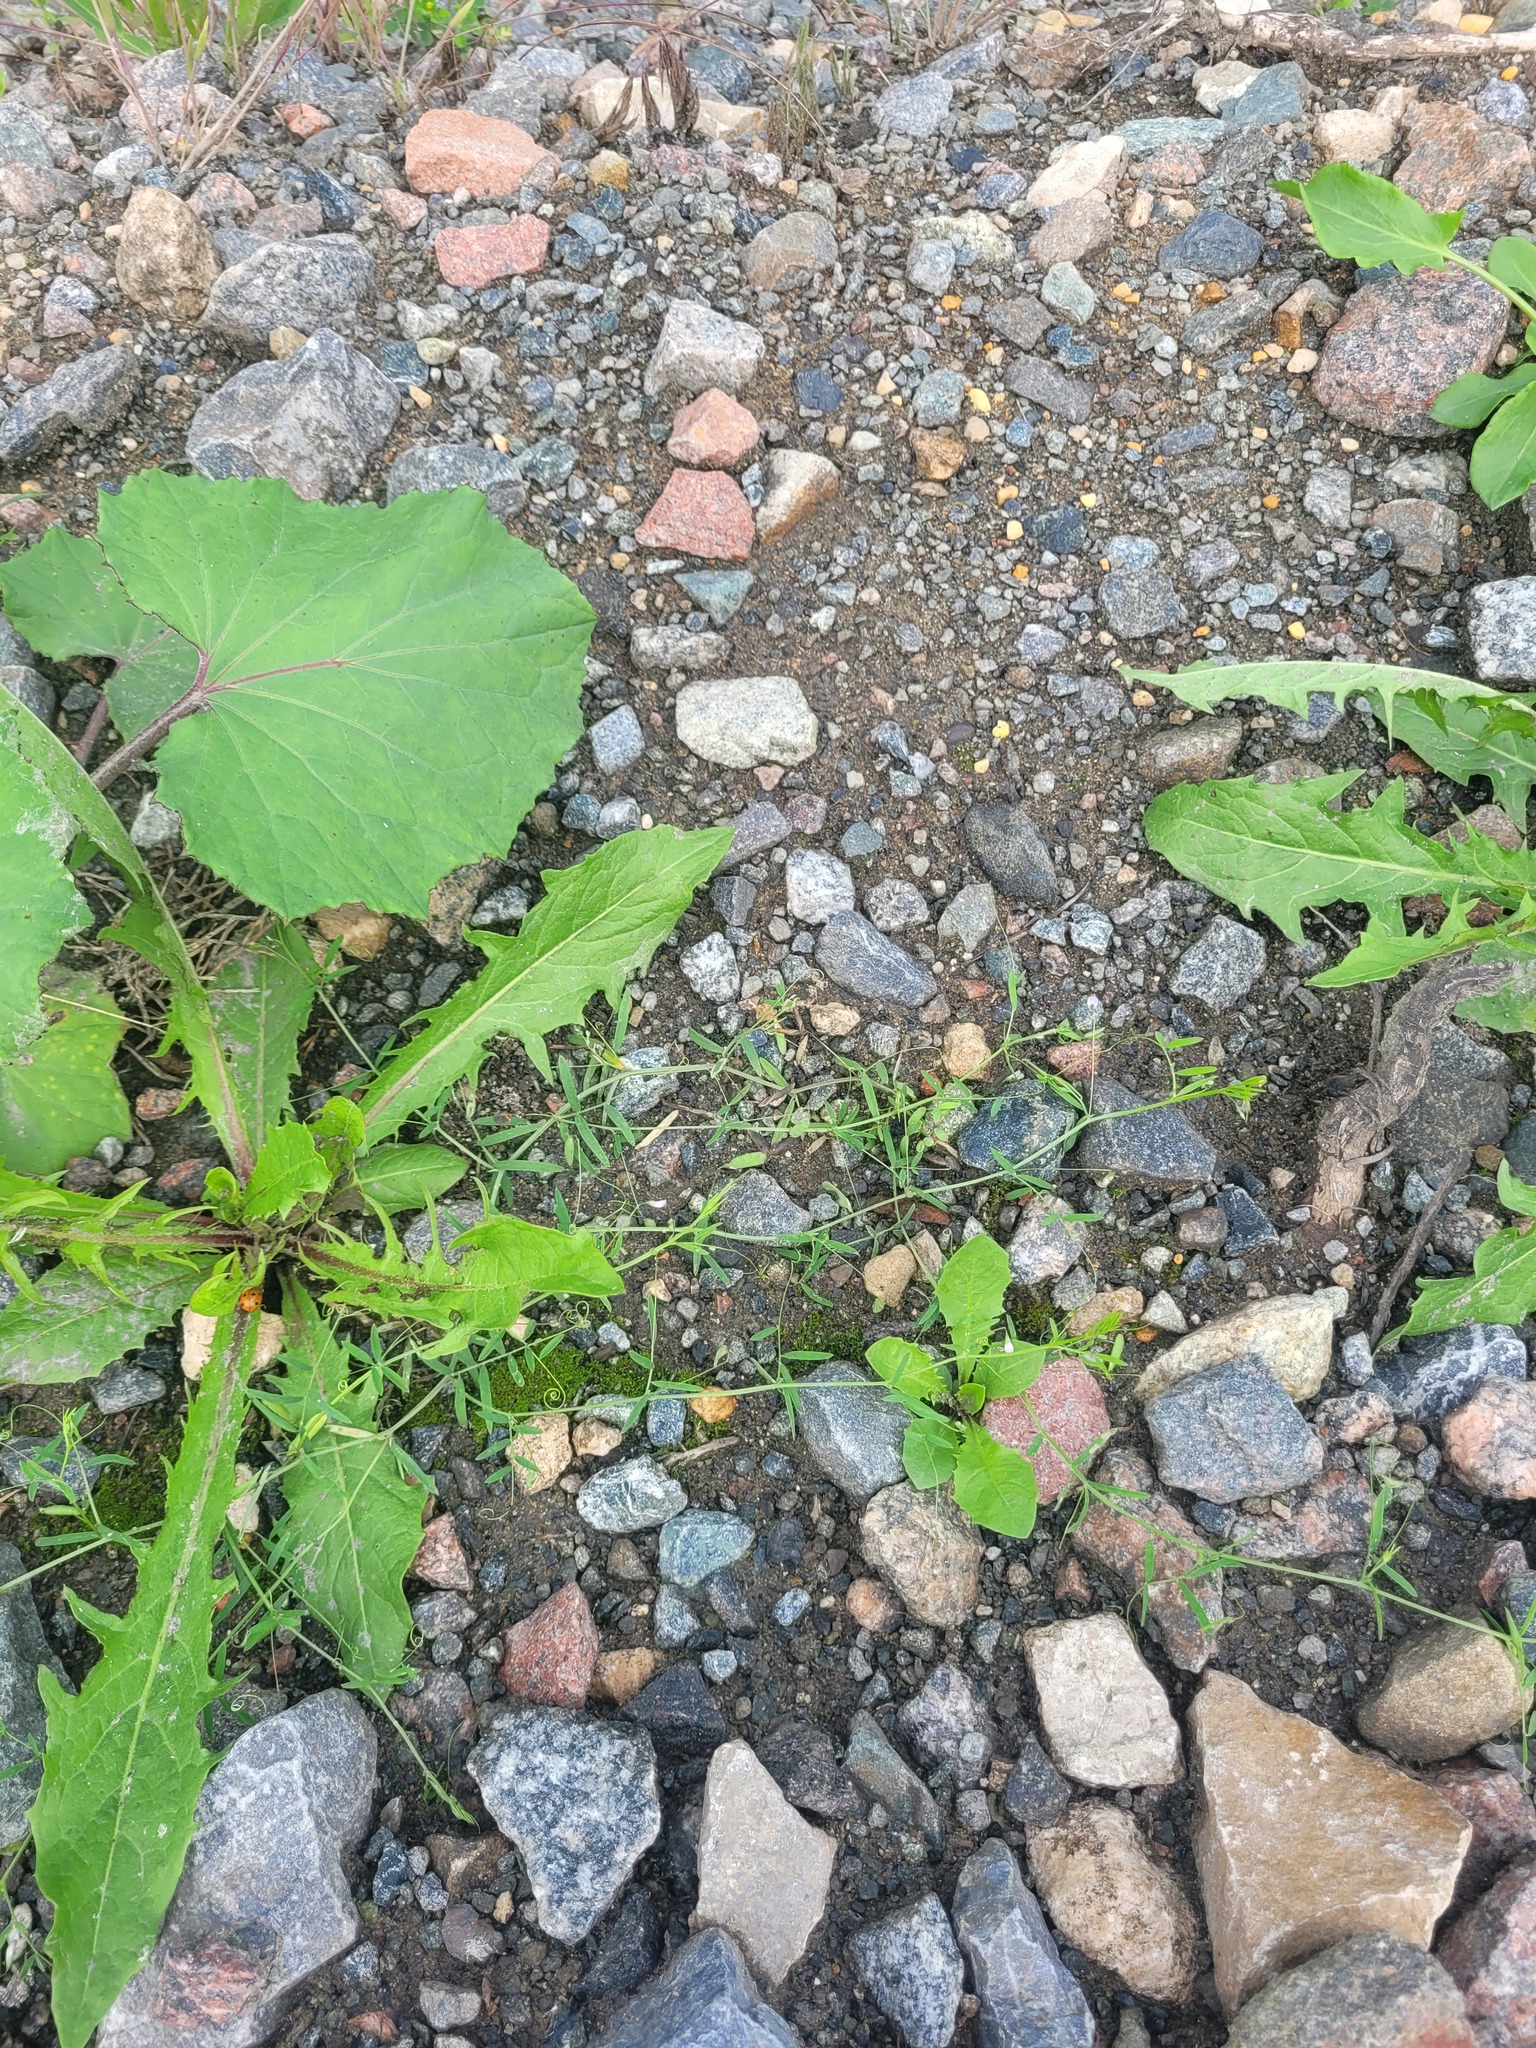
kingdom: Plantae
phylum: Tracheophyta
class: Magnoliopsida
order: Fabales
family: Fabaceae
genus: Vicia
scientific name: Vicia tetrasperma
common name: Smooth tare
